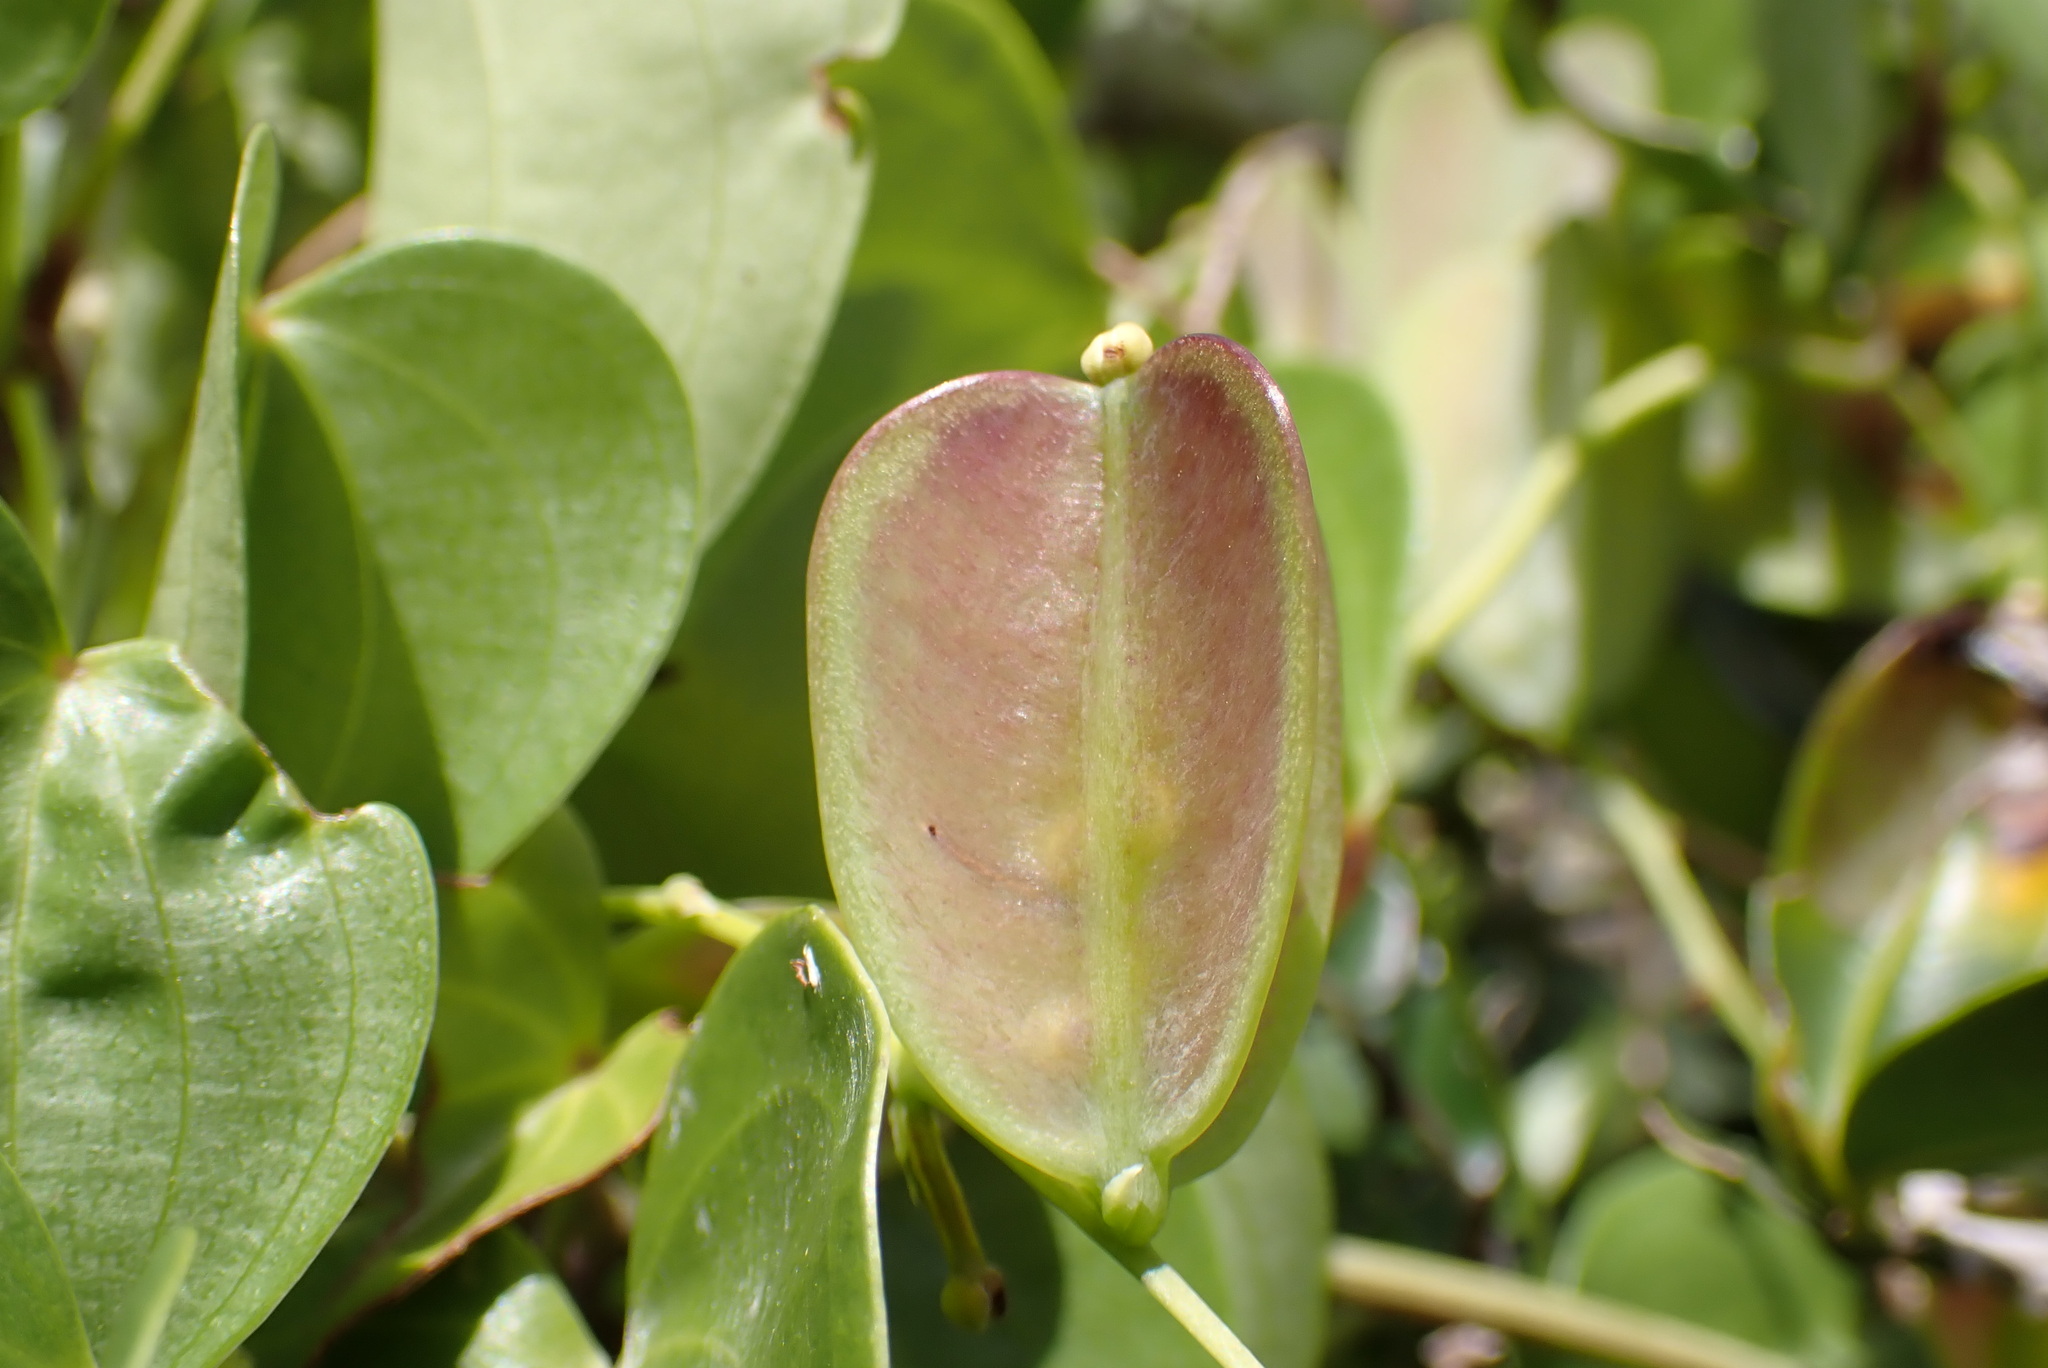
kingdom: Plantae
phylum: Tracheophyta
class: Liliopsida
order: Dioscoreales
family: Dioscoreaceae
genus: Dioscorea
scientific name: Dioscorea cotinifolia
